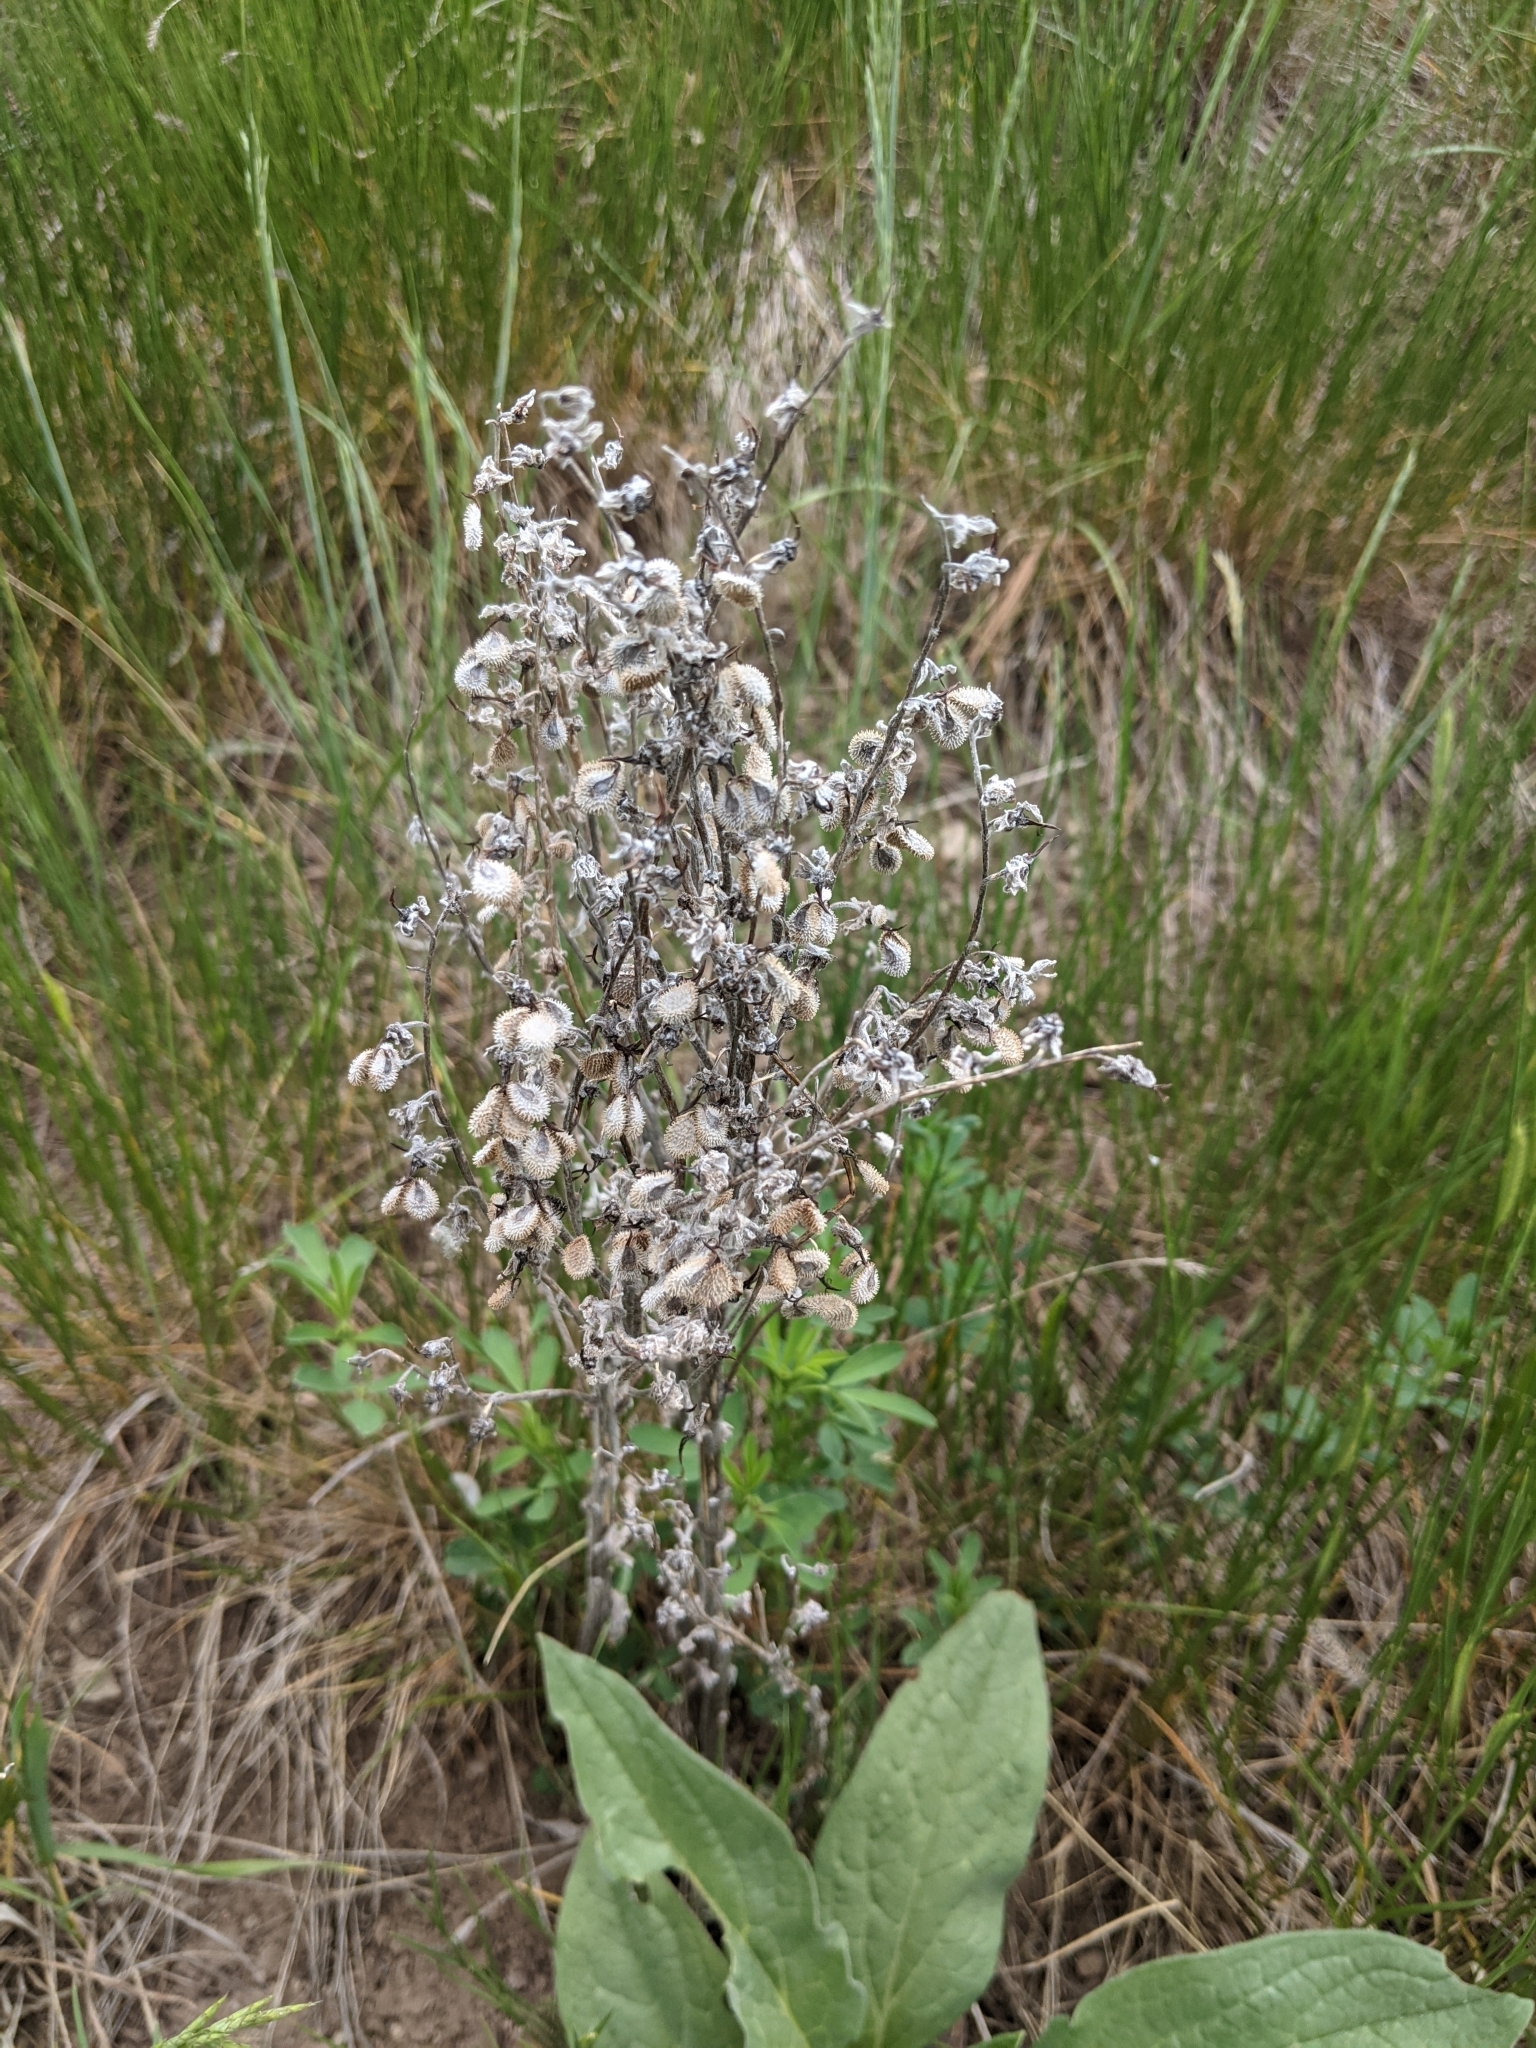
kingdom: Plantae
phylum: Tracheophyta
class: Magnoliopsida
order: Boraginales
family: Boraginaceae
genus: Cynoglossum
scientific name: Cynoglossum officinale
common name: Hound's-tongue
